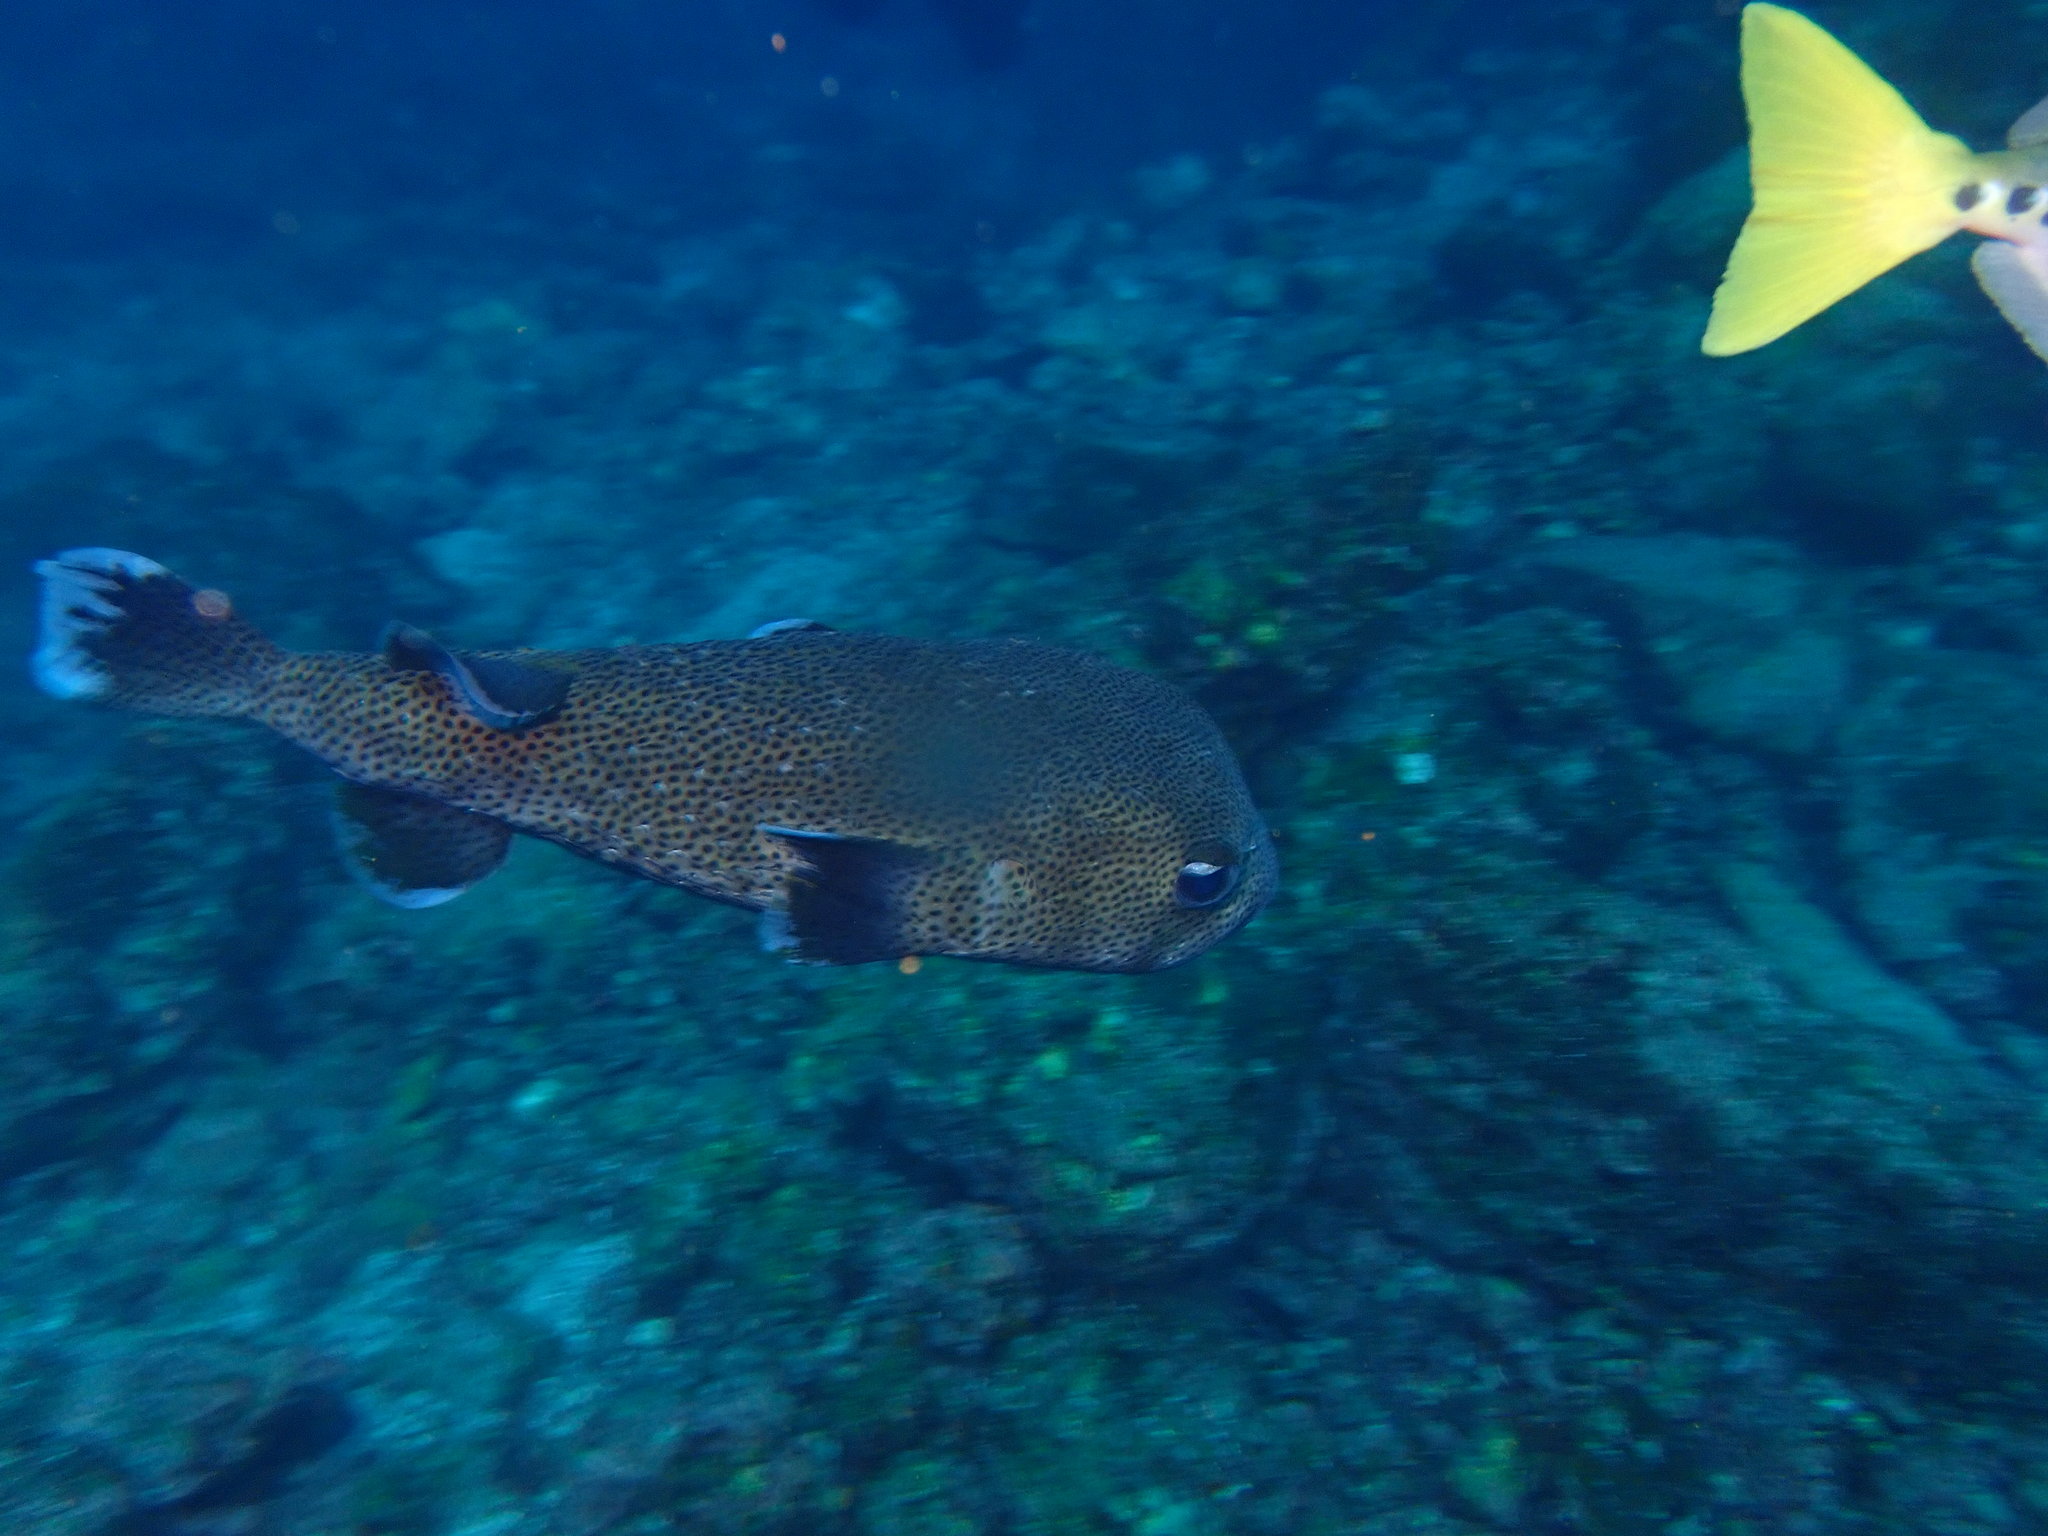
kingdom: Animalia
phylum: Chordata
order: Tetraodontiformes
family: Diodontidae
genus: Diodon
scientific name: Diodon hystrix
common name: Giant porcupinefish
